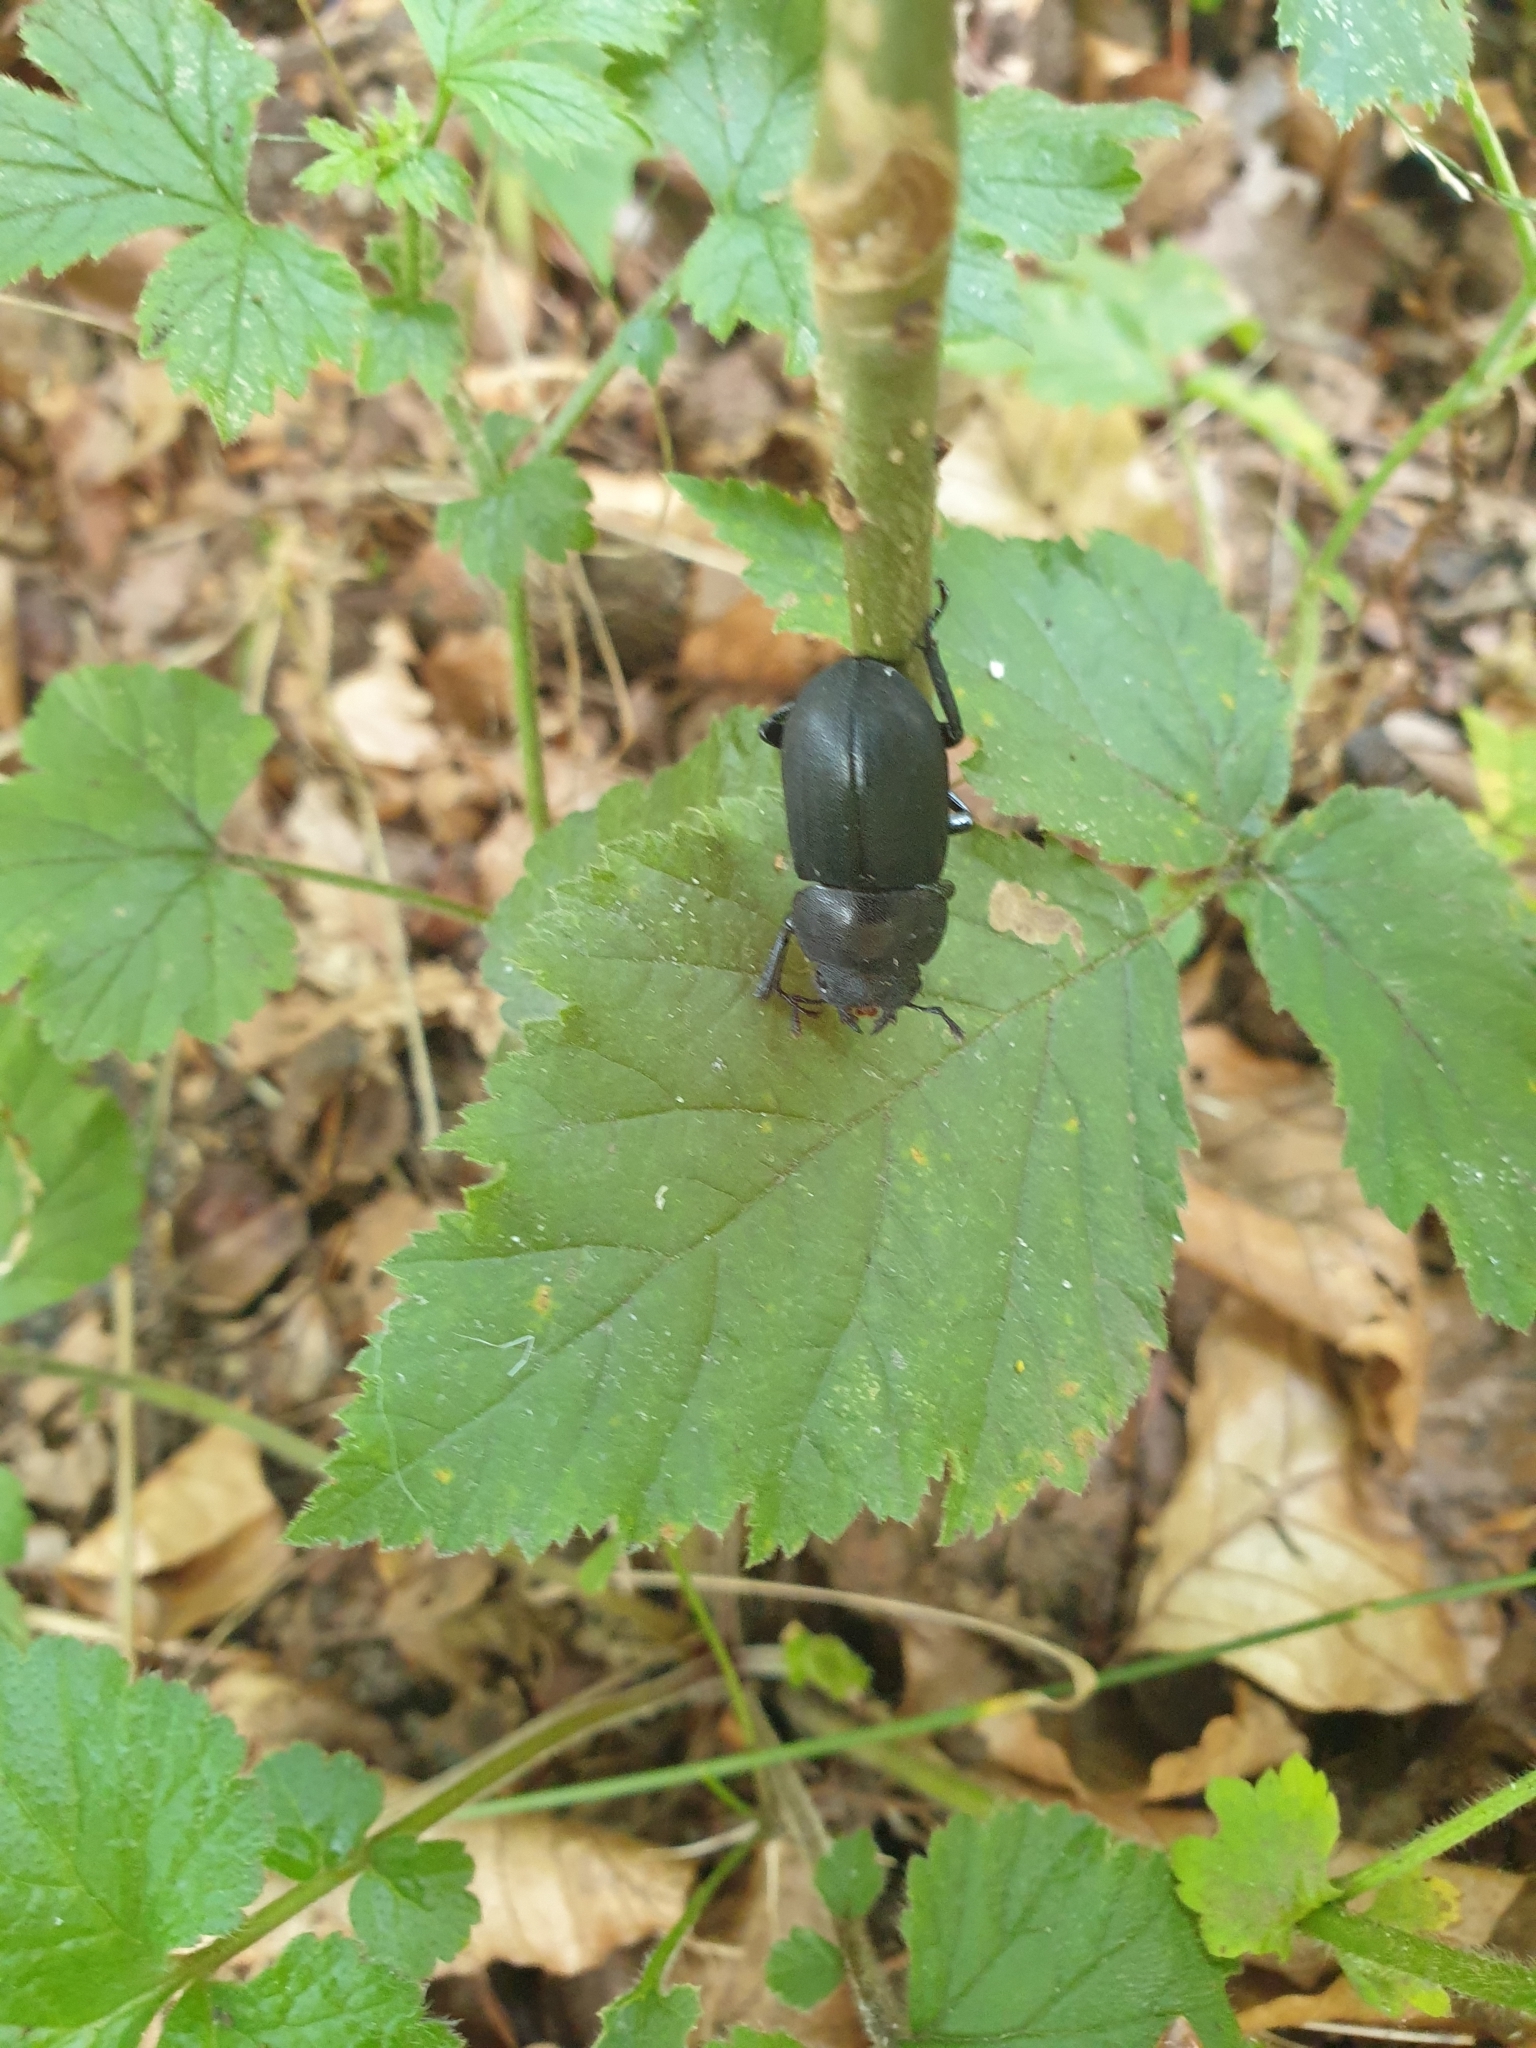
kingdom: Animalia
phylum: Arthropoda
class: Insecta
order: Coleoptera
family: Lucanidae
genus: Dorcus
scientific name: Dorcus parallelipipedus
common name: Lesser stag beetle
